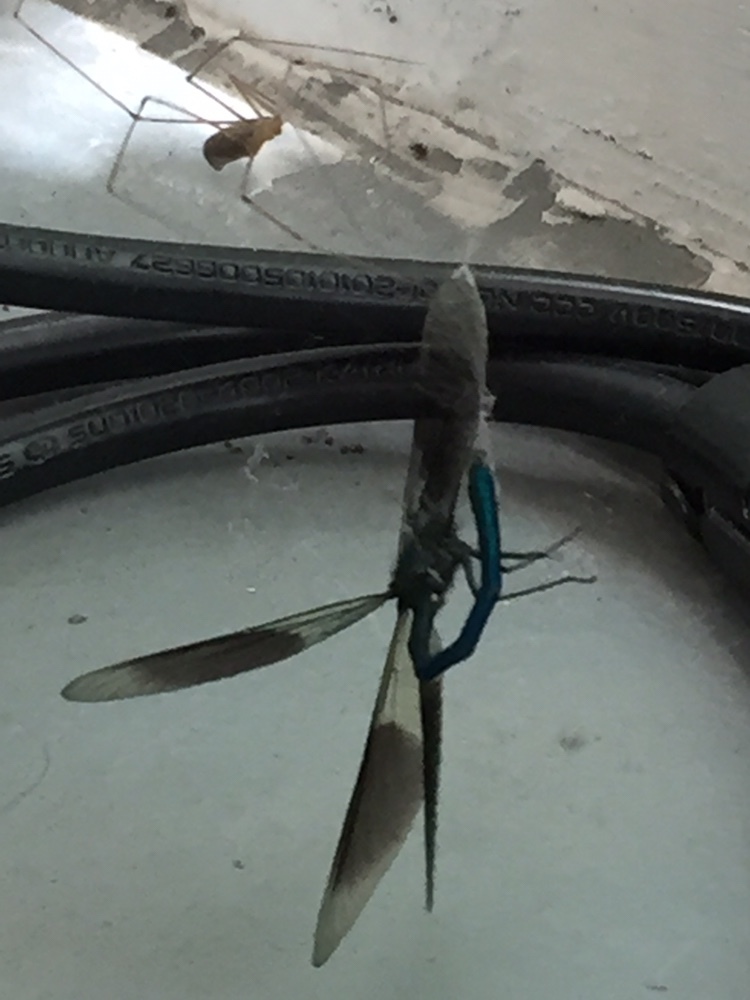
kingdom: Animalia
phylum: Arthropoda
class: Insecta
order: Odonata
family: Calopterygidae
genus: Calopteryx
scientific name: Calopteryx splendens
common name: Banded demoiselle
